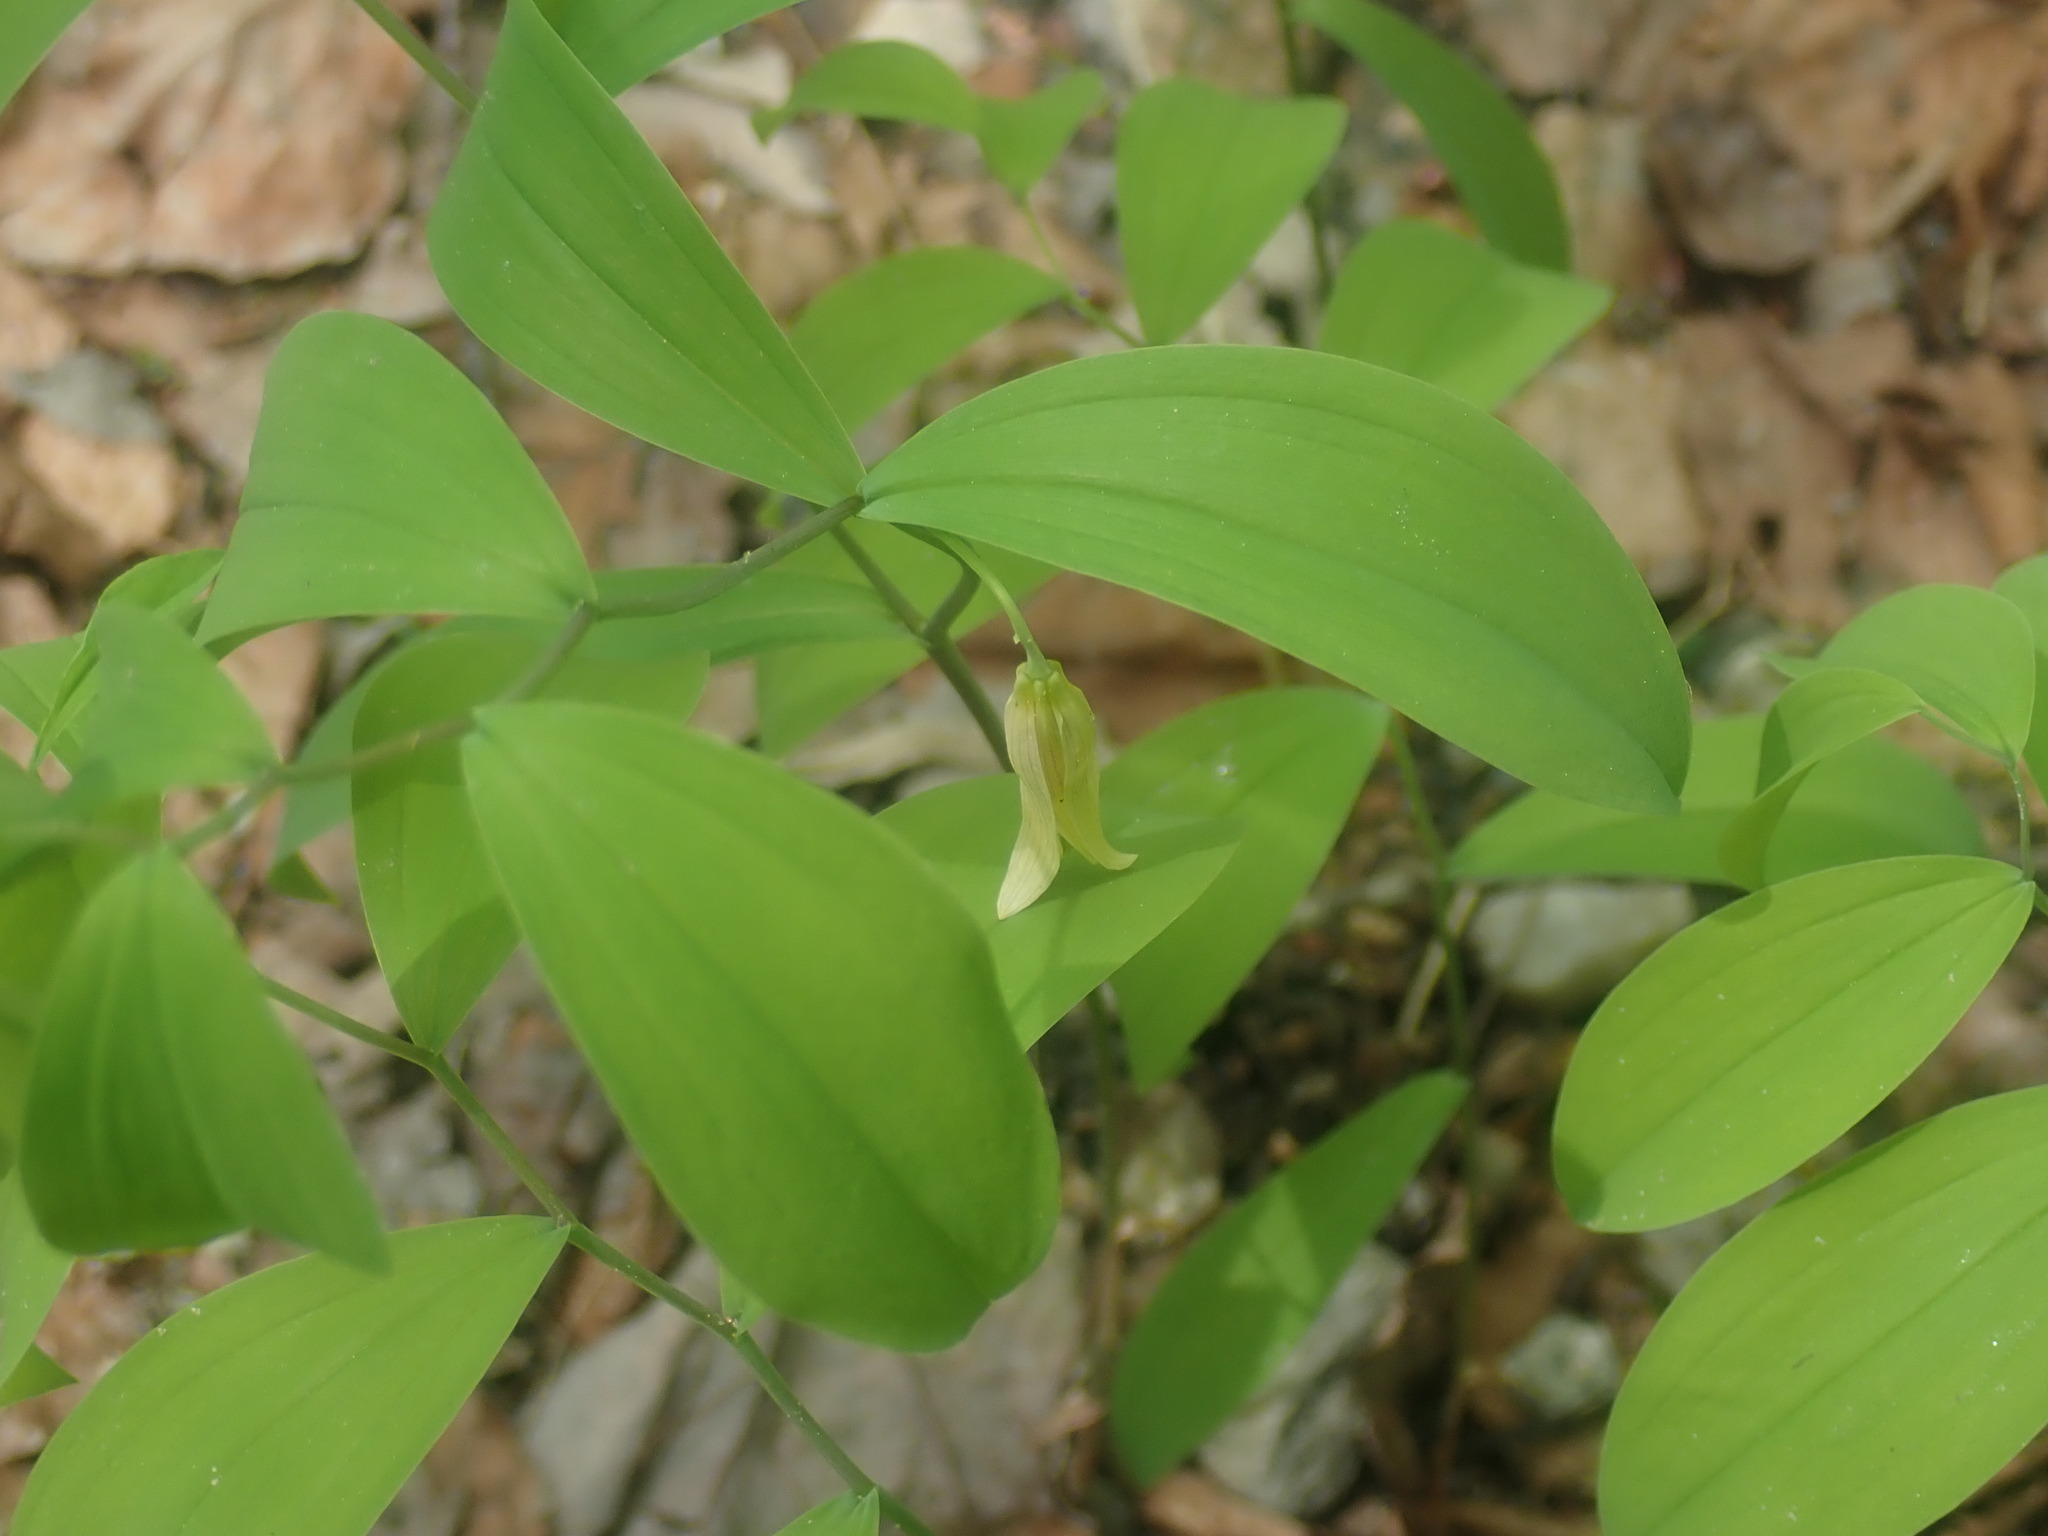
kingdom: Plantae
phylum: Tracheophyta
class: Liliopsida
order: Liliales
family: Colchicaceae
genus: Uvularia
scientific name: Uvularia sessilifolia
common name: Straw-lily
